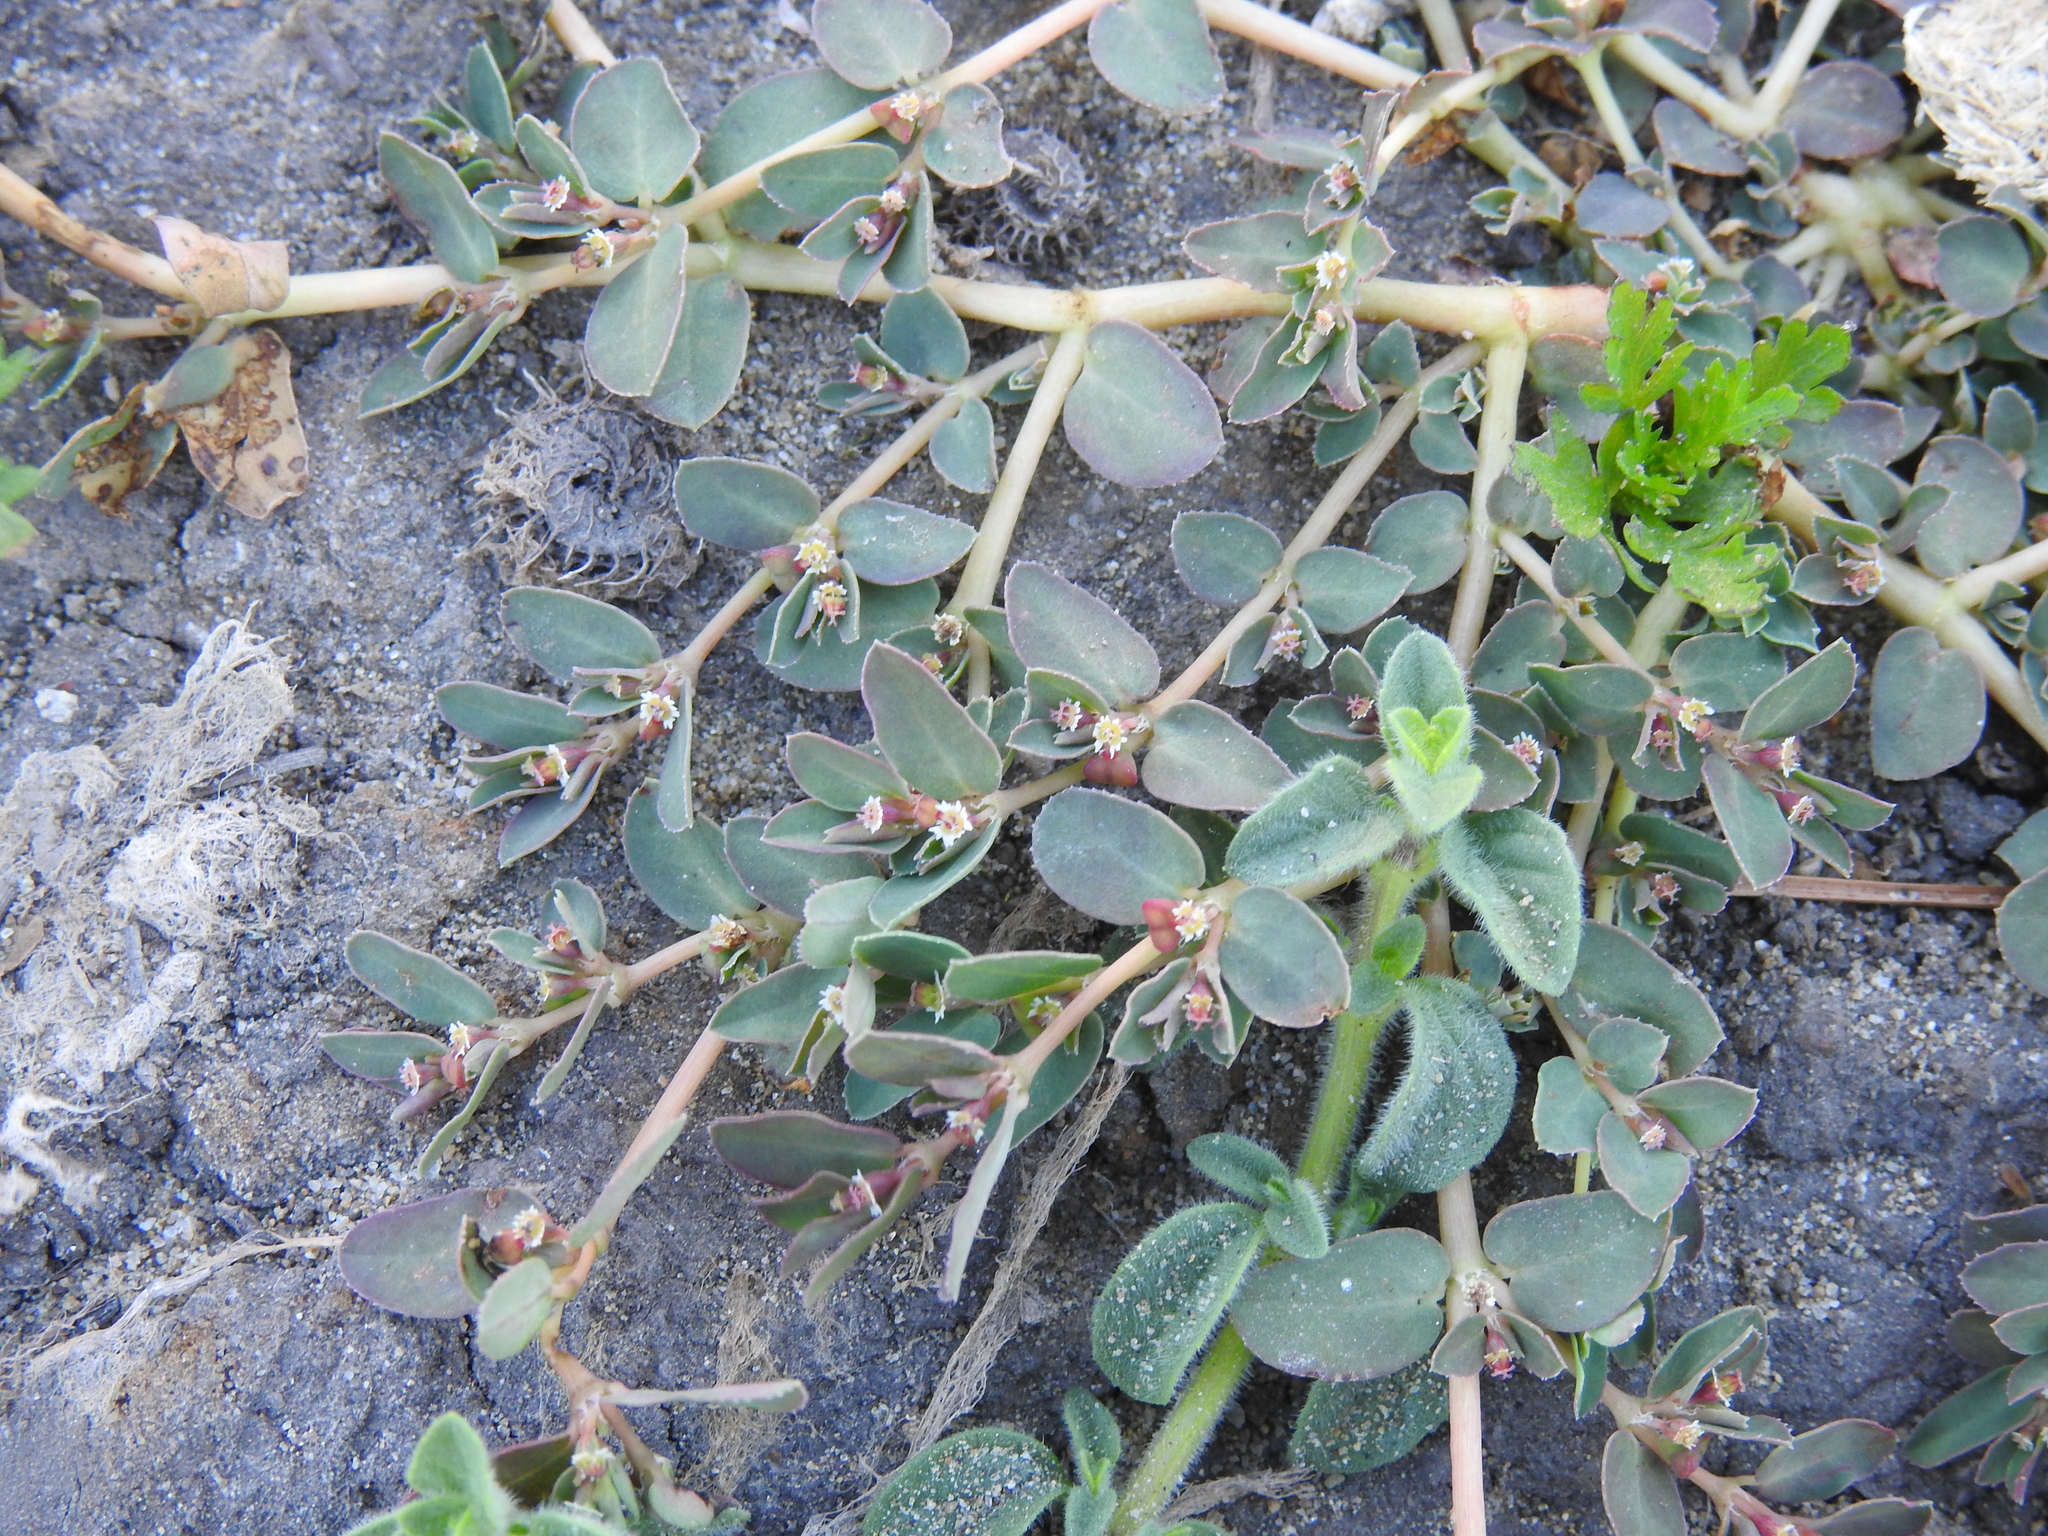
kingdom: Plantae
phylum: Tracheophyta
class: Magnoliopsida
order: Malpighiales
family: Euphorbiaceae
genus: Euphorbia
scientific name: Euphorbia serpillifolia
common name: Thyme-leaf spurge
